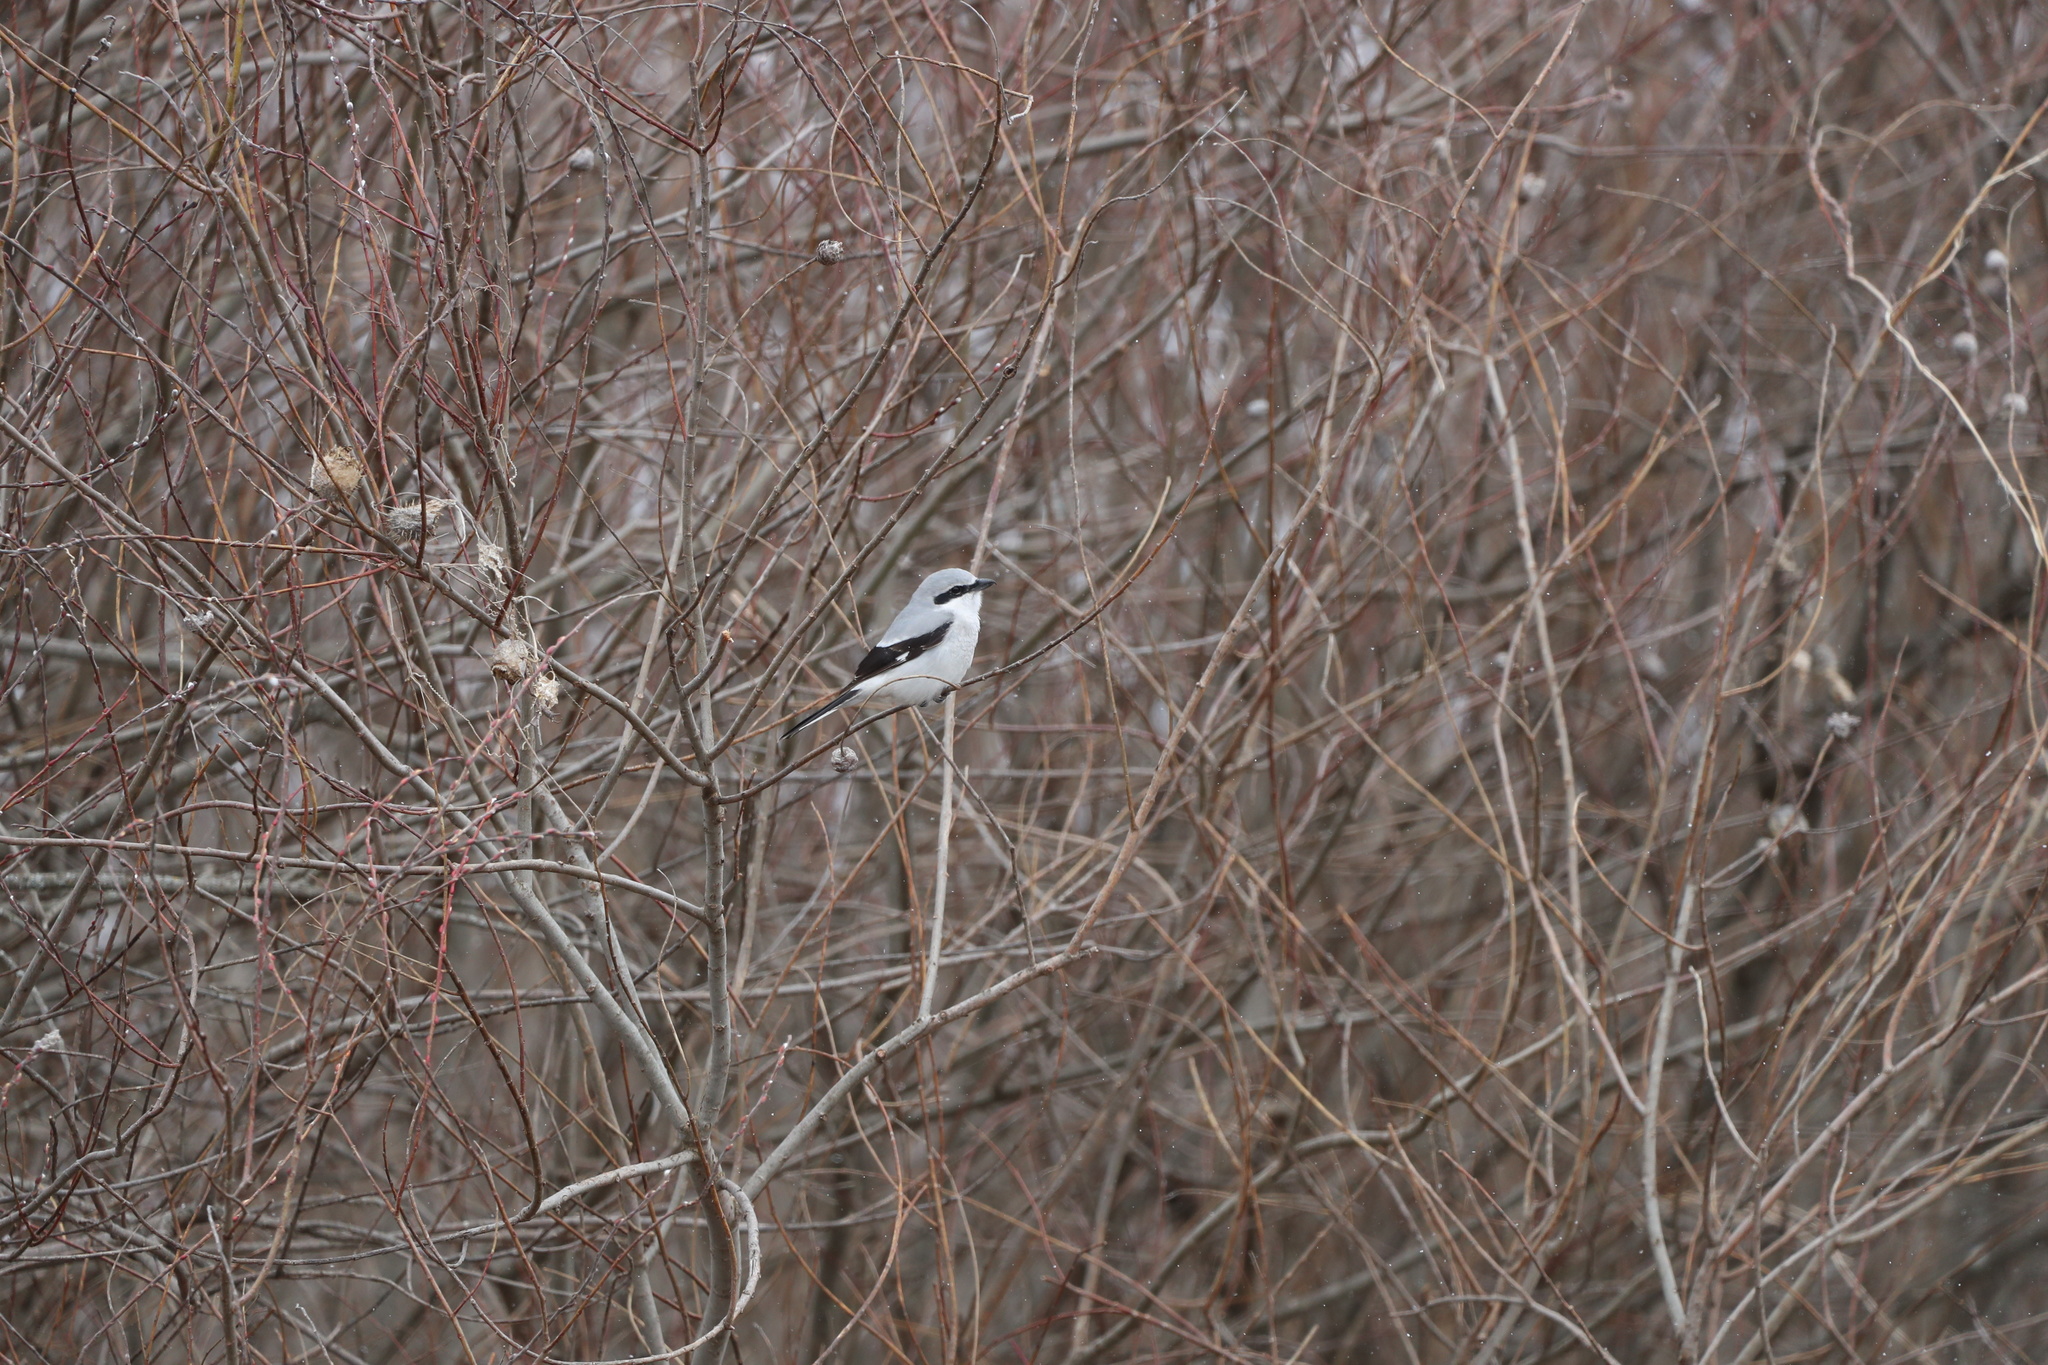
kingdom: Animalia
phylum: Chordata
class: Aves
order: Passeriformes
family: Laniidae
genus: Lanius
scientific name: Lanius borealis
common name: Northern shrike
